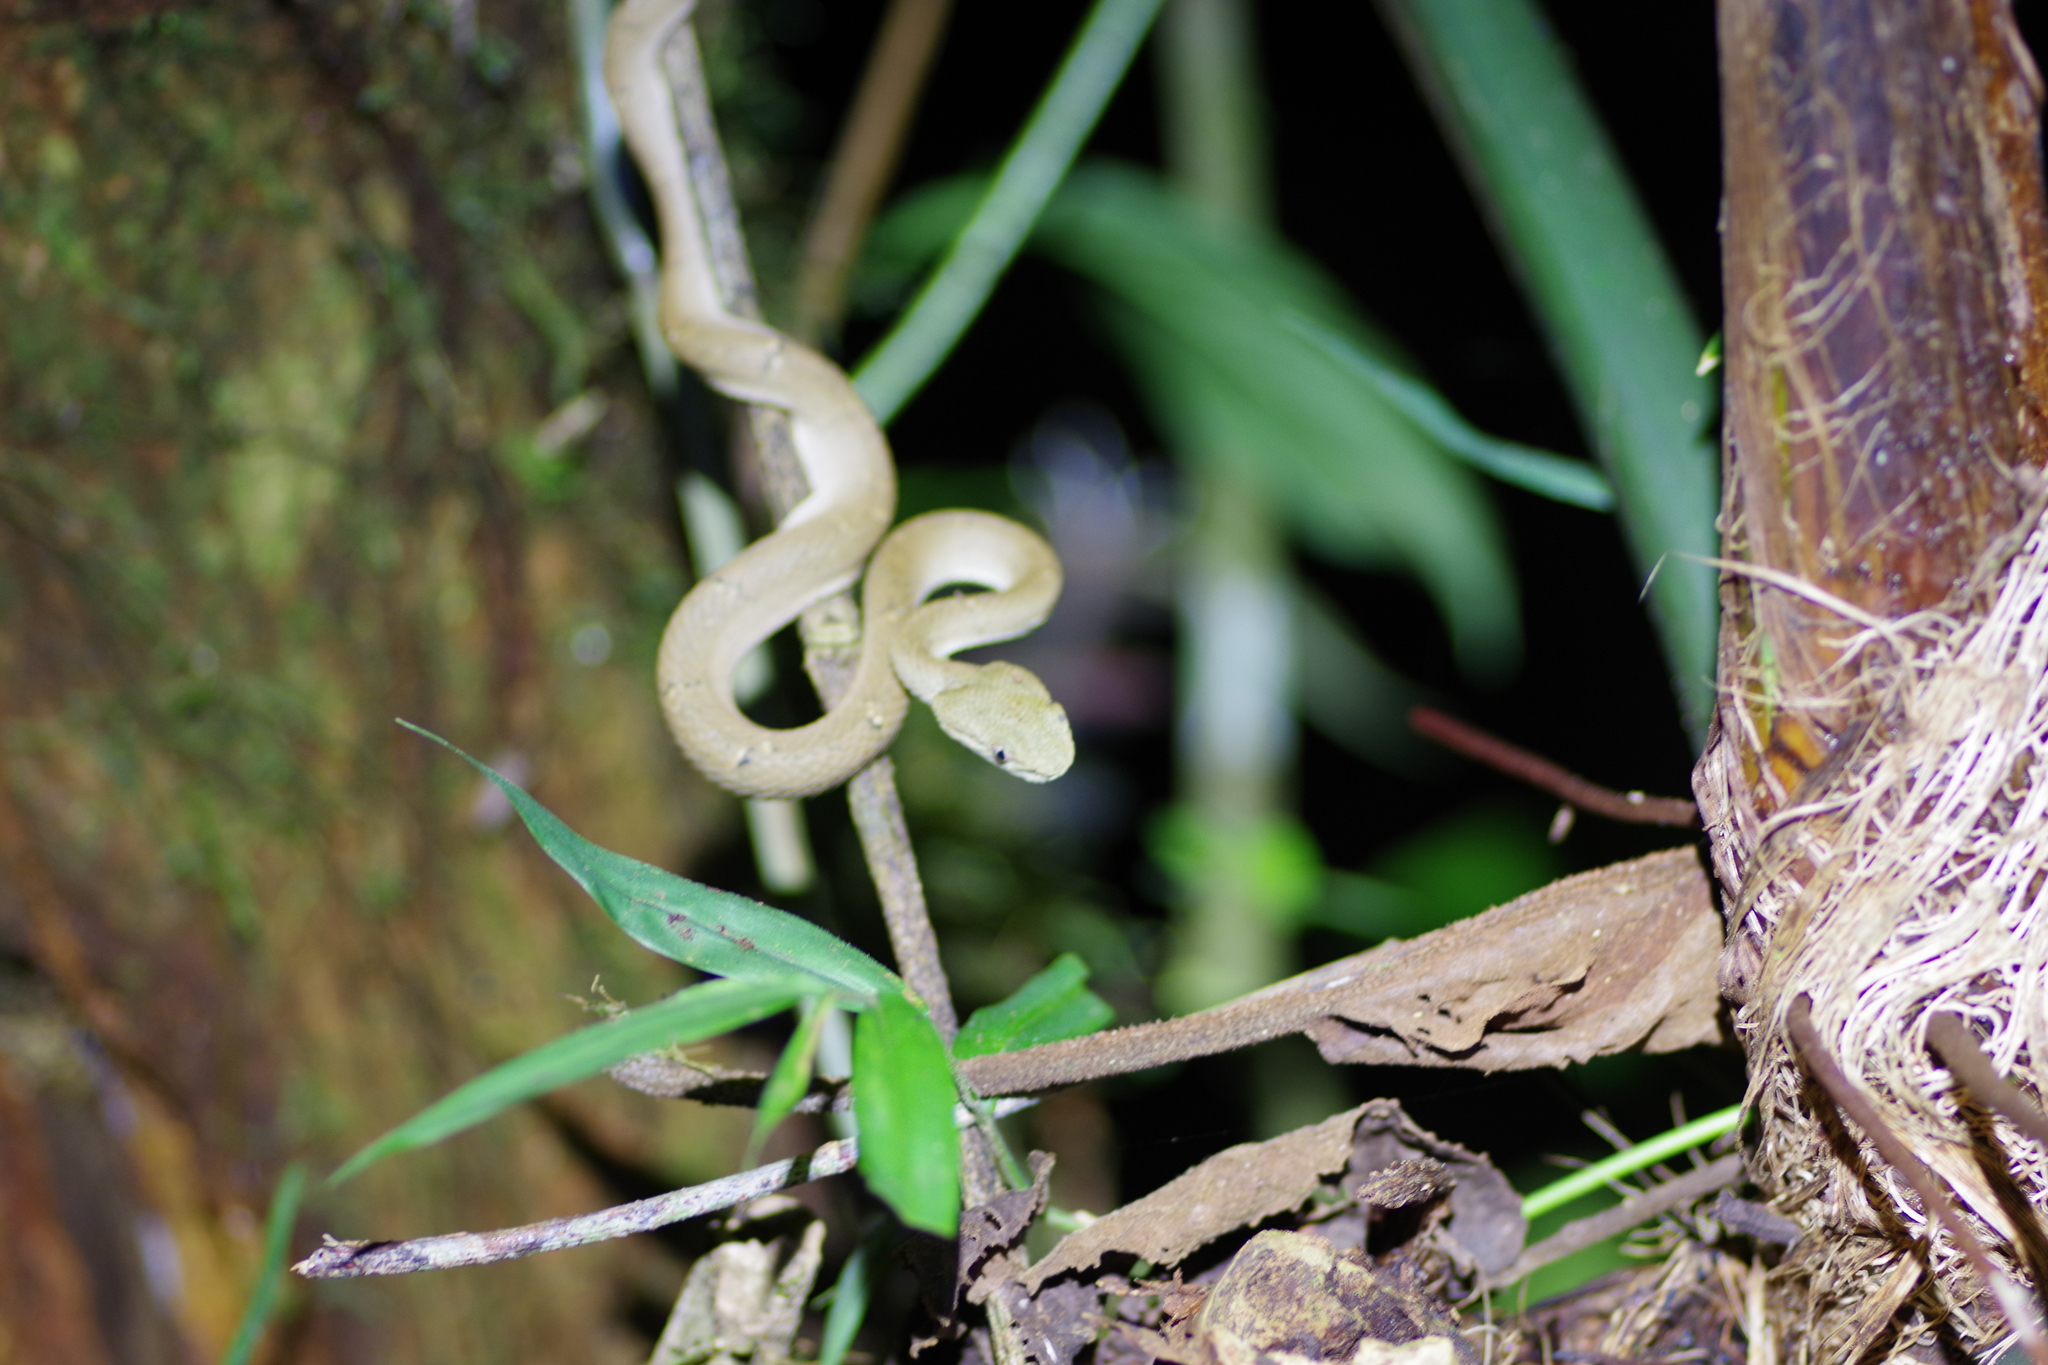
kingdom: Animalia
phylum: Chordata
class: Squamata
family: Viperidae
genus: Bothriechis
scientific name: Bothriechis lateralis
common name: Coffee palm viper
